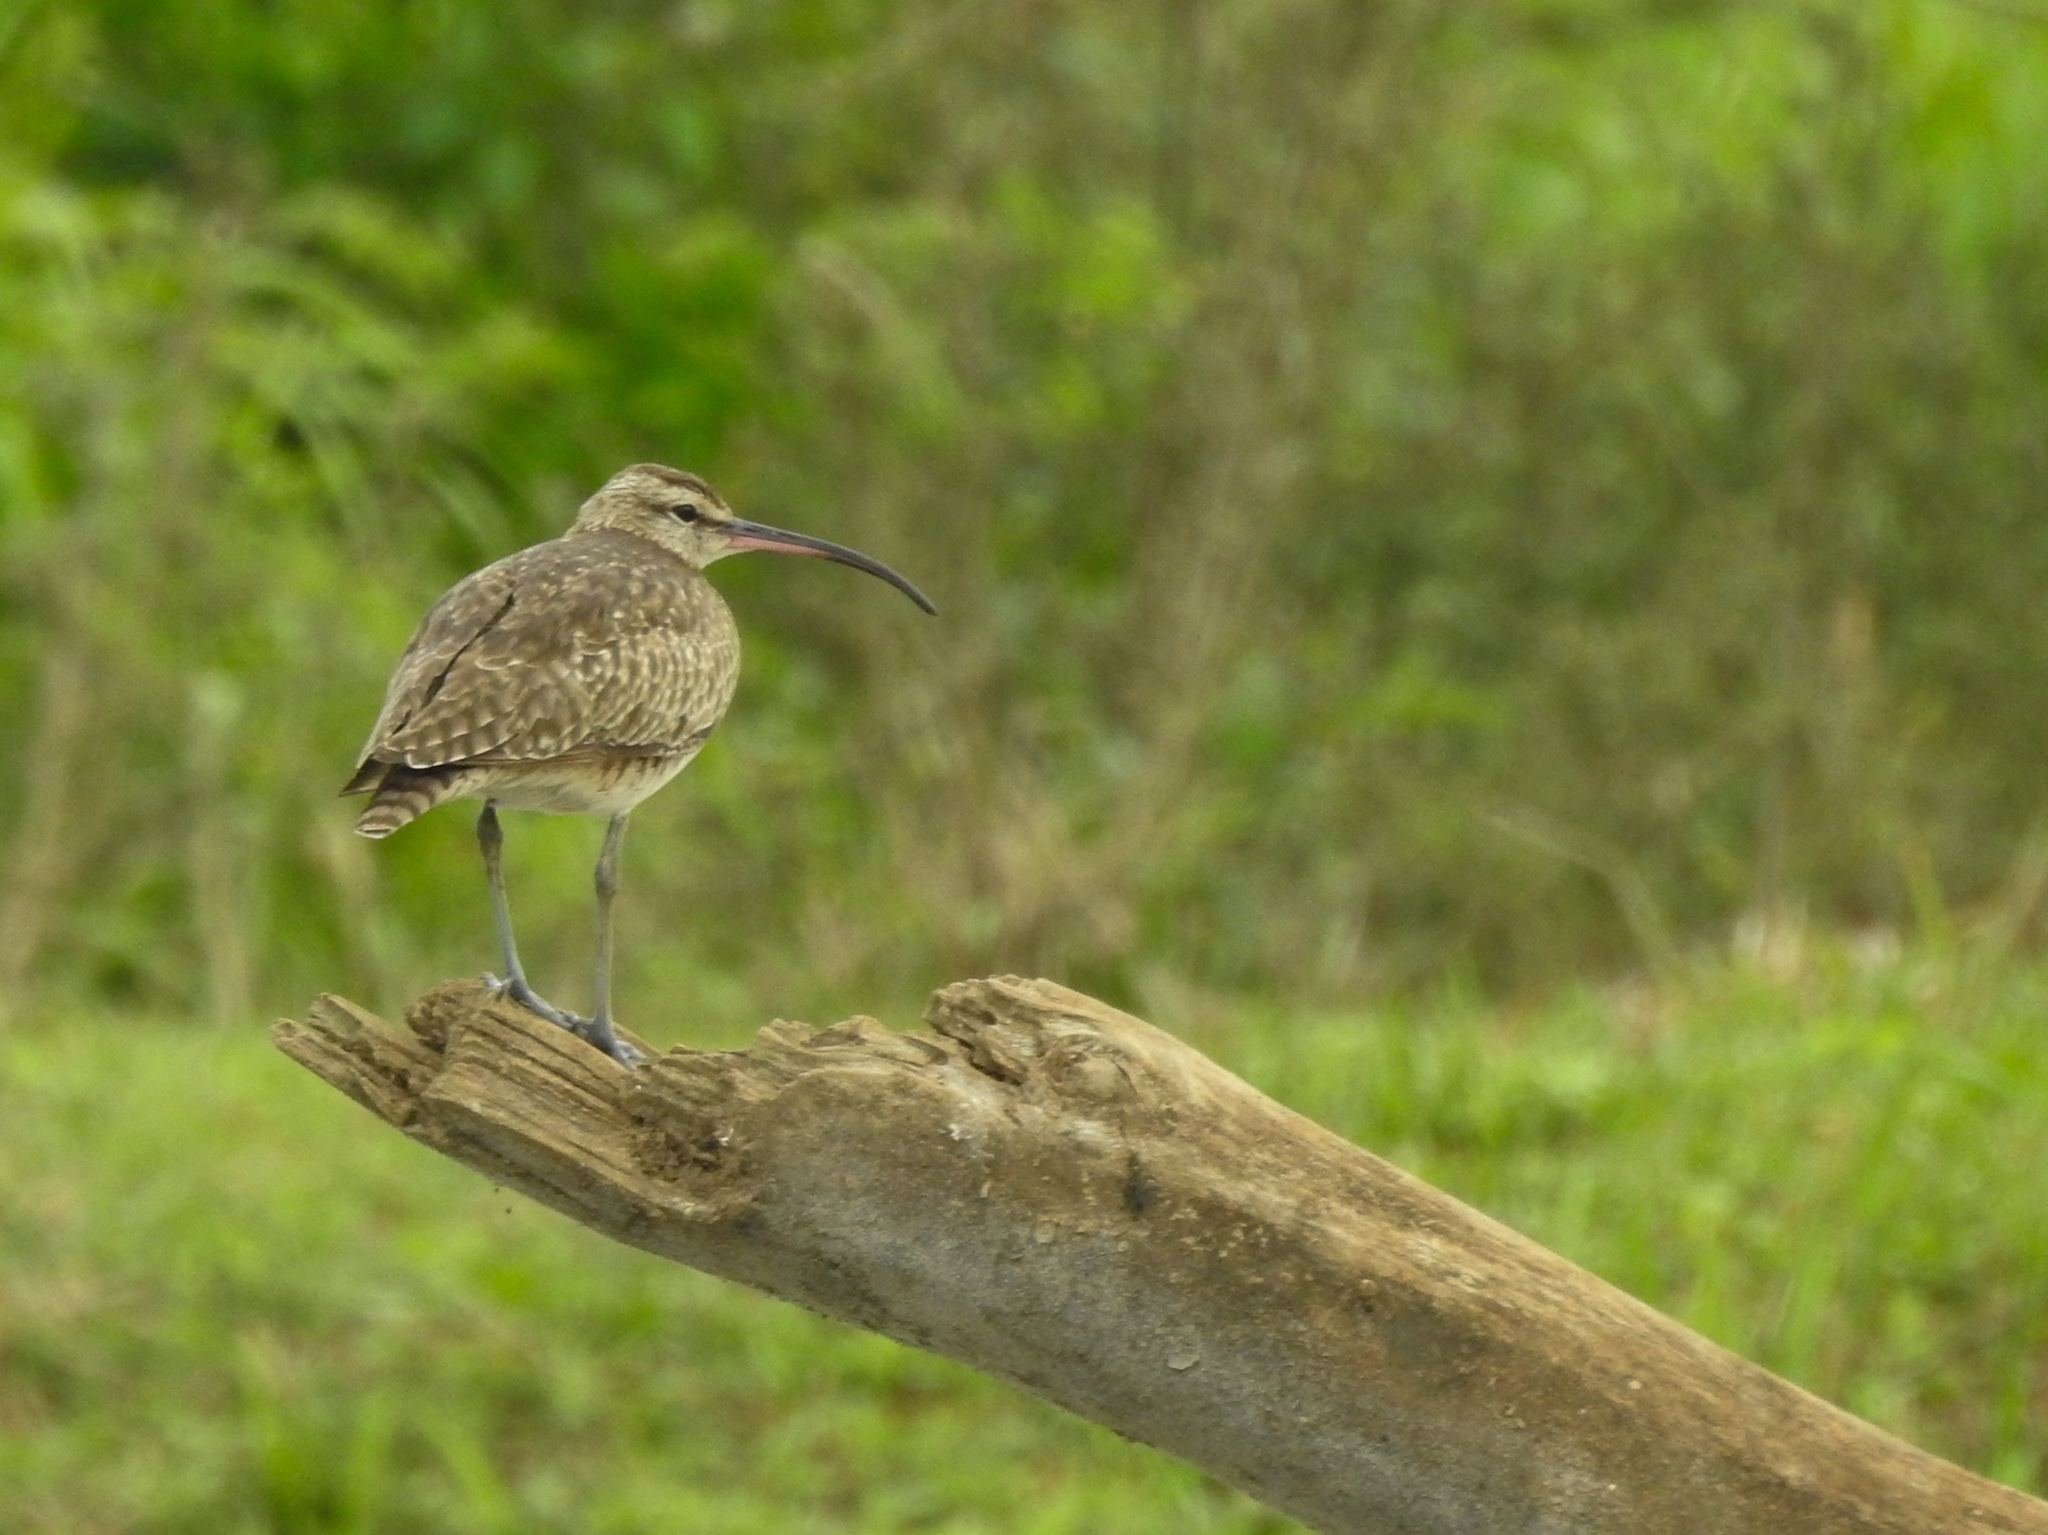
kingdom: Animalia
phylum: Chordata
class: Aves
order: Charadriiformes
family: Scolopacidae
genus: Numenius
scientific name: Numenius phaeopus
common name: Whimbrel
